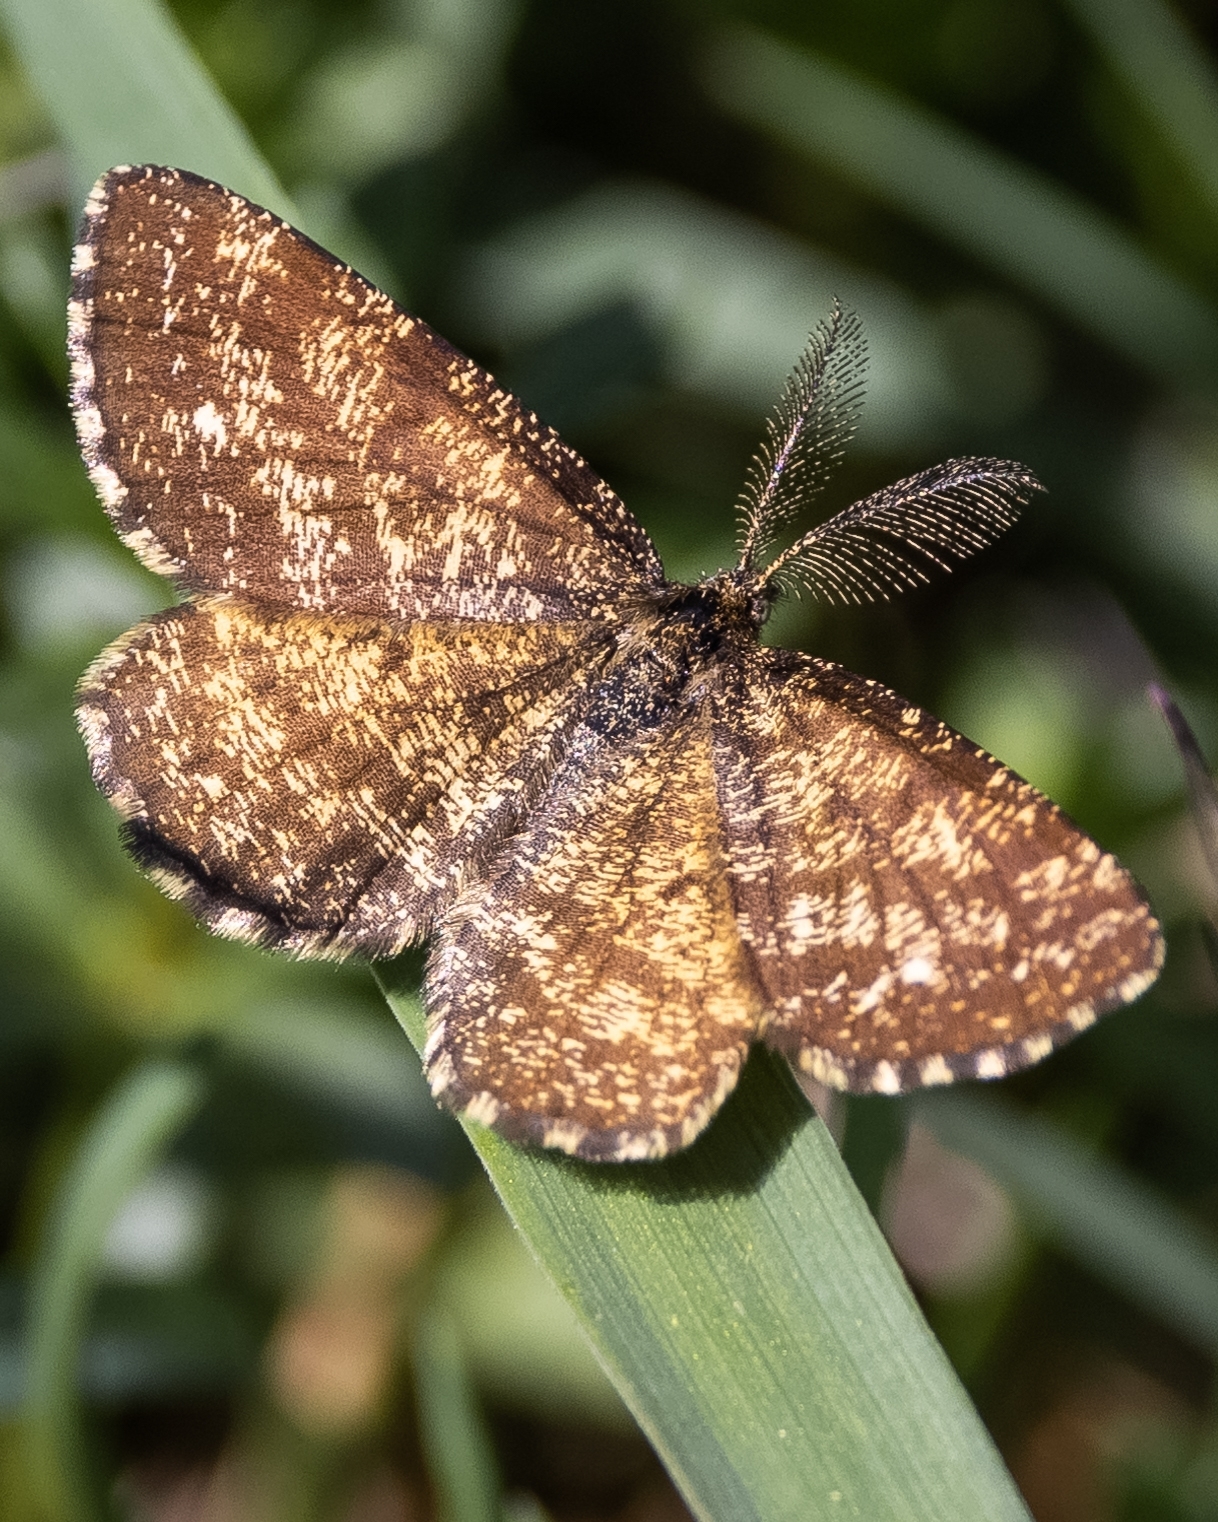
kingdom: Animalia
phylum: Arthropoda
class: Insecta
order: Lepidoptera
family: Geometridae
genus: Ematurga
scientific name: Ematurga atomaria
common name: Common heath
